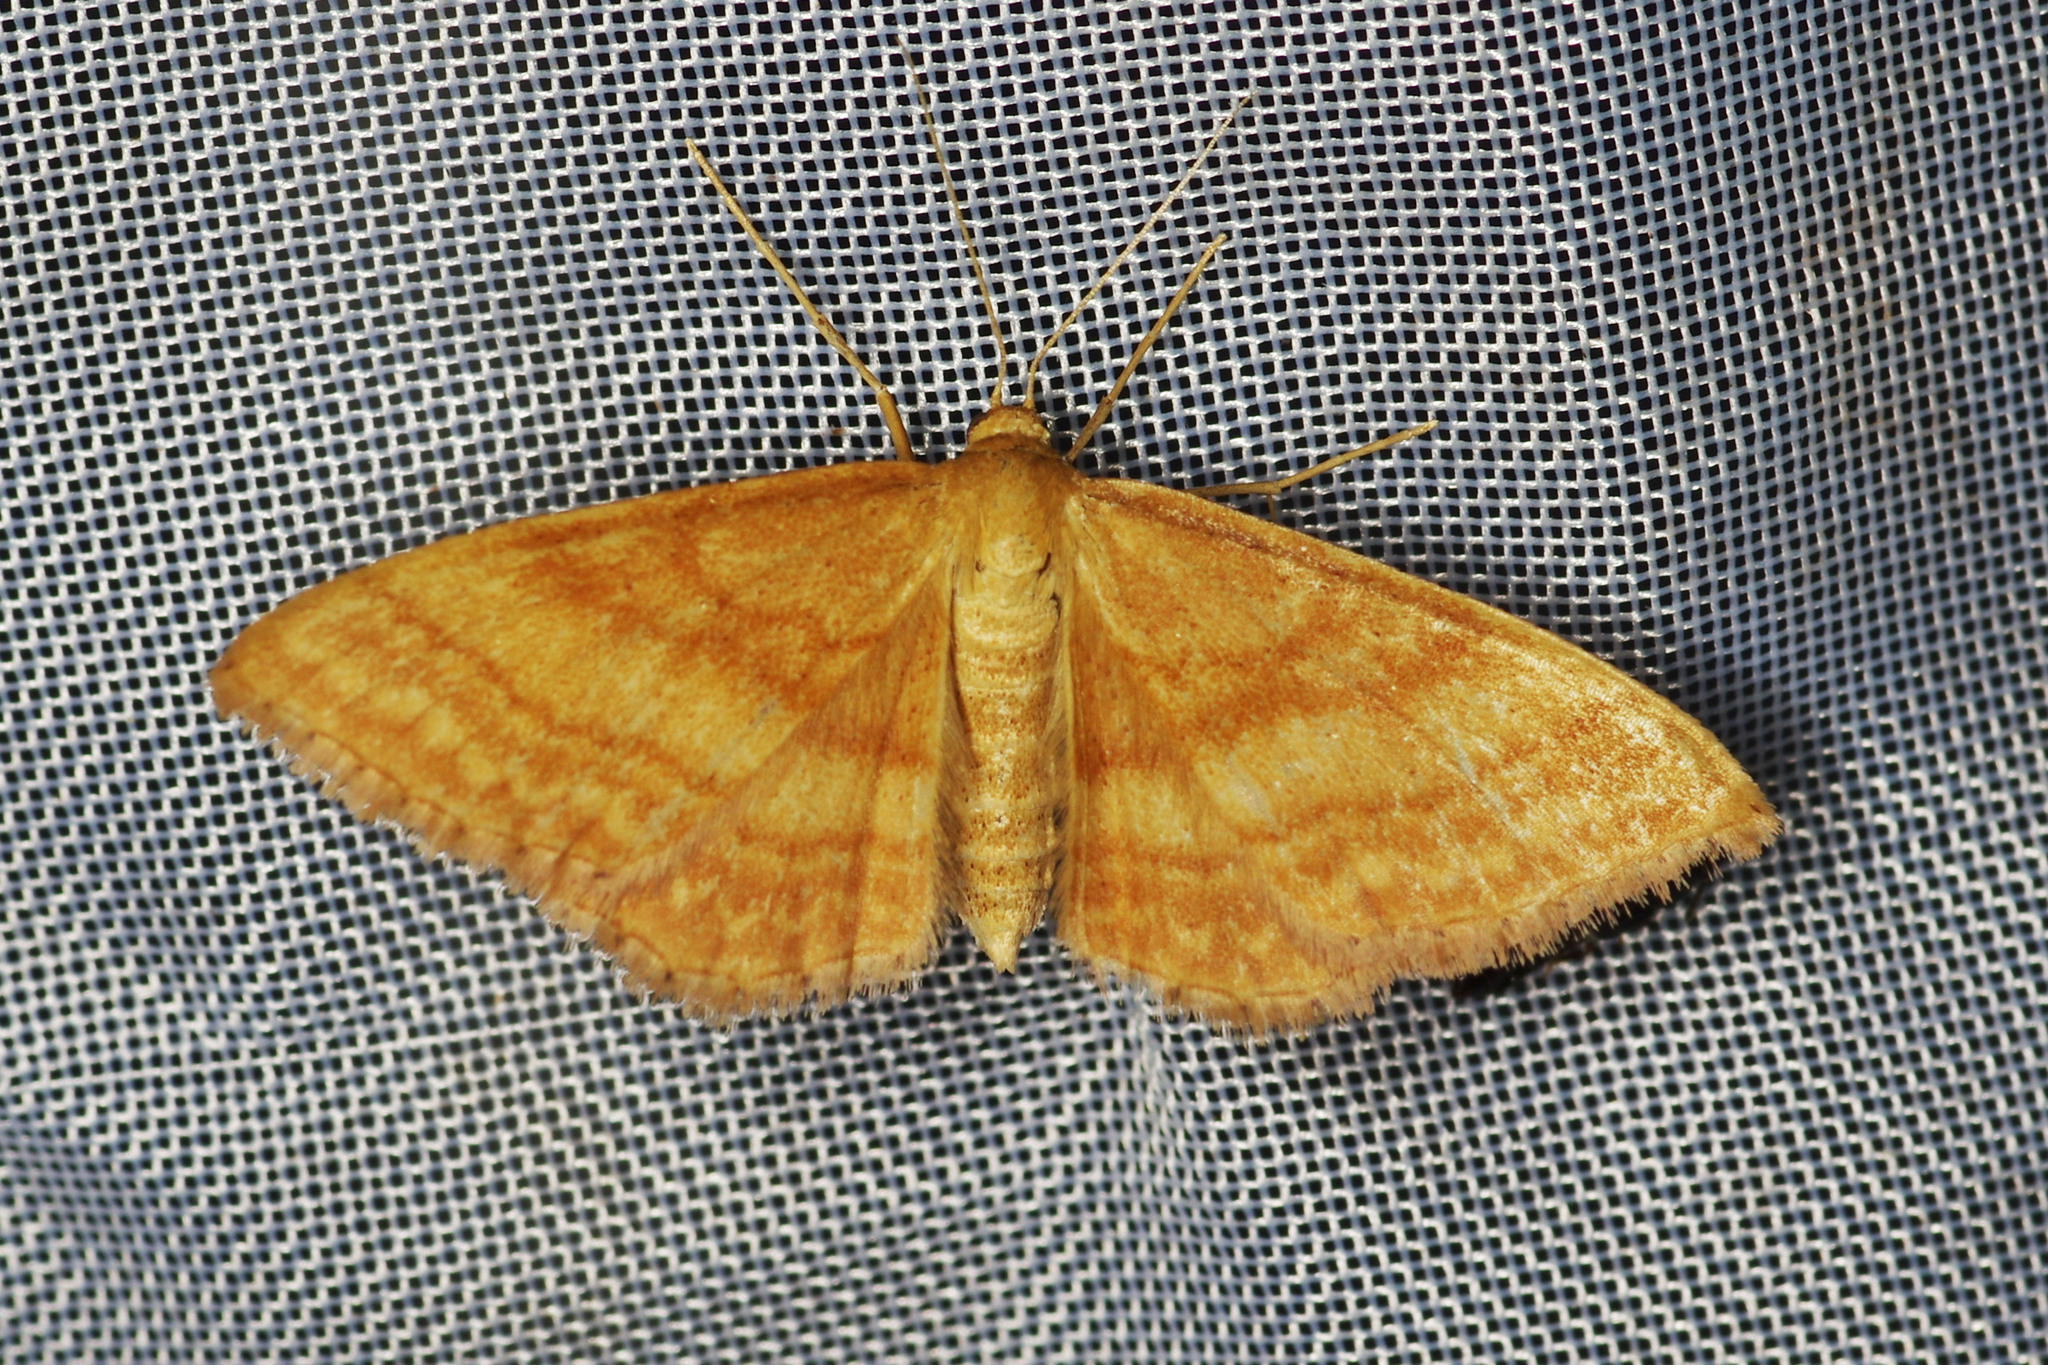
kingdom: Animalia
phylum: Arthropoda
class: Insecta
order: Lepidoptera
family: Geometridae
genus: Idaea
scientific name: Idaea ochrata
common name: Bright wave
